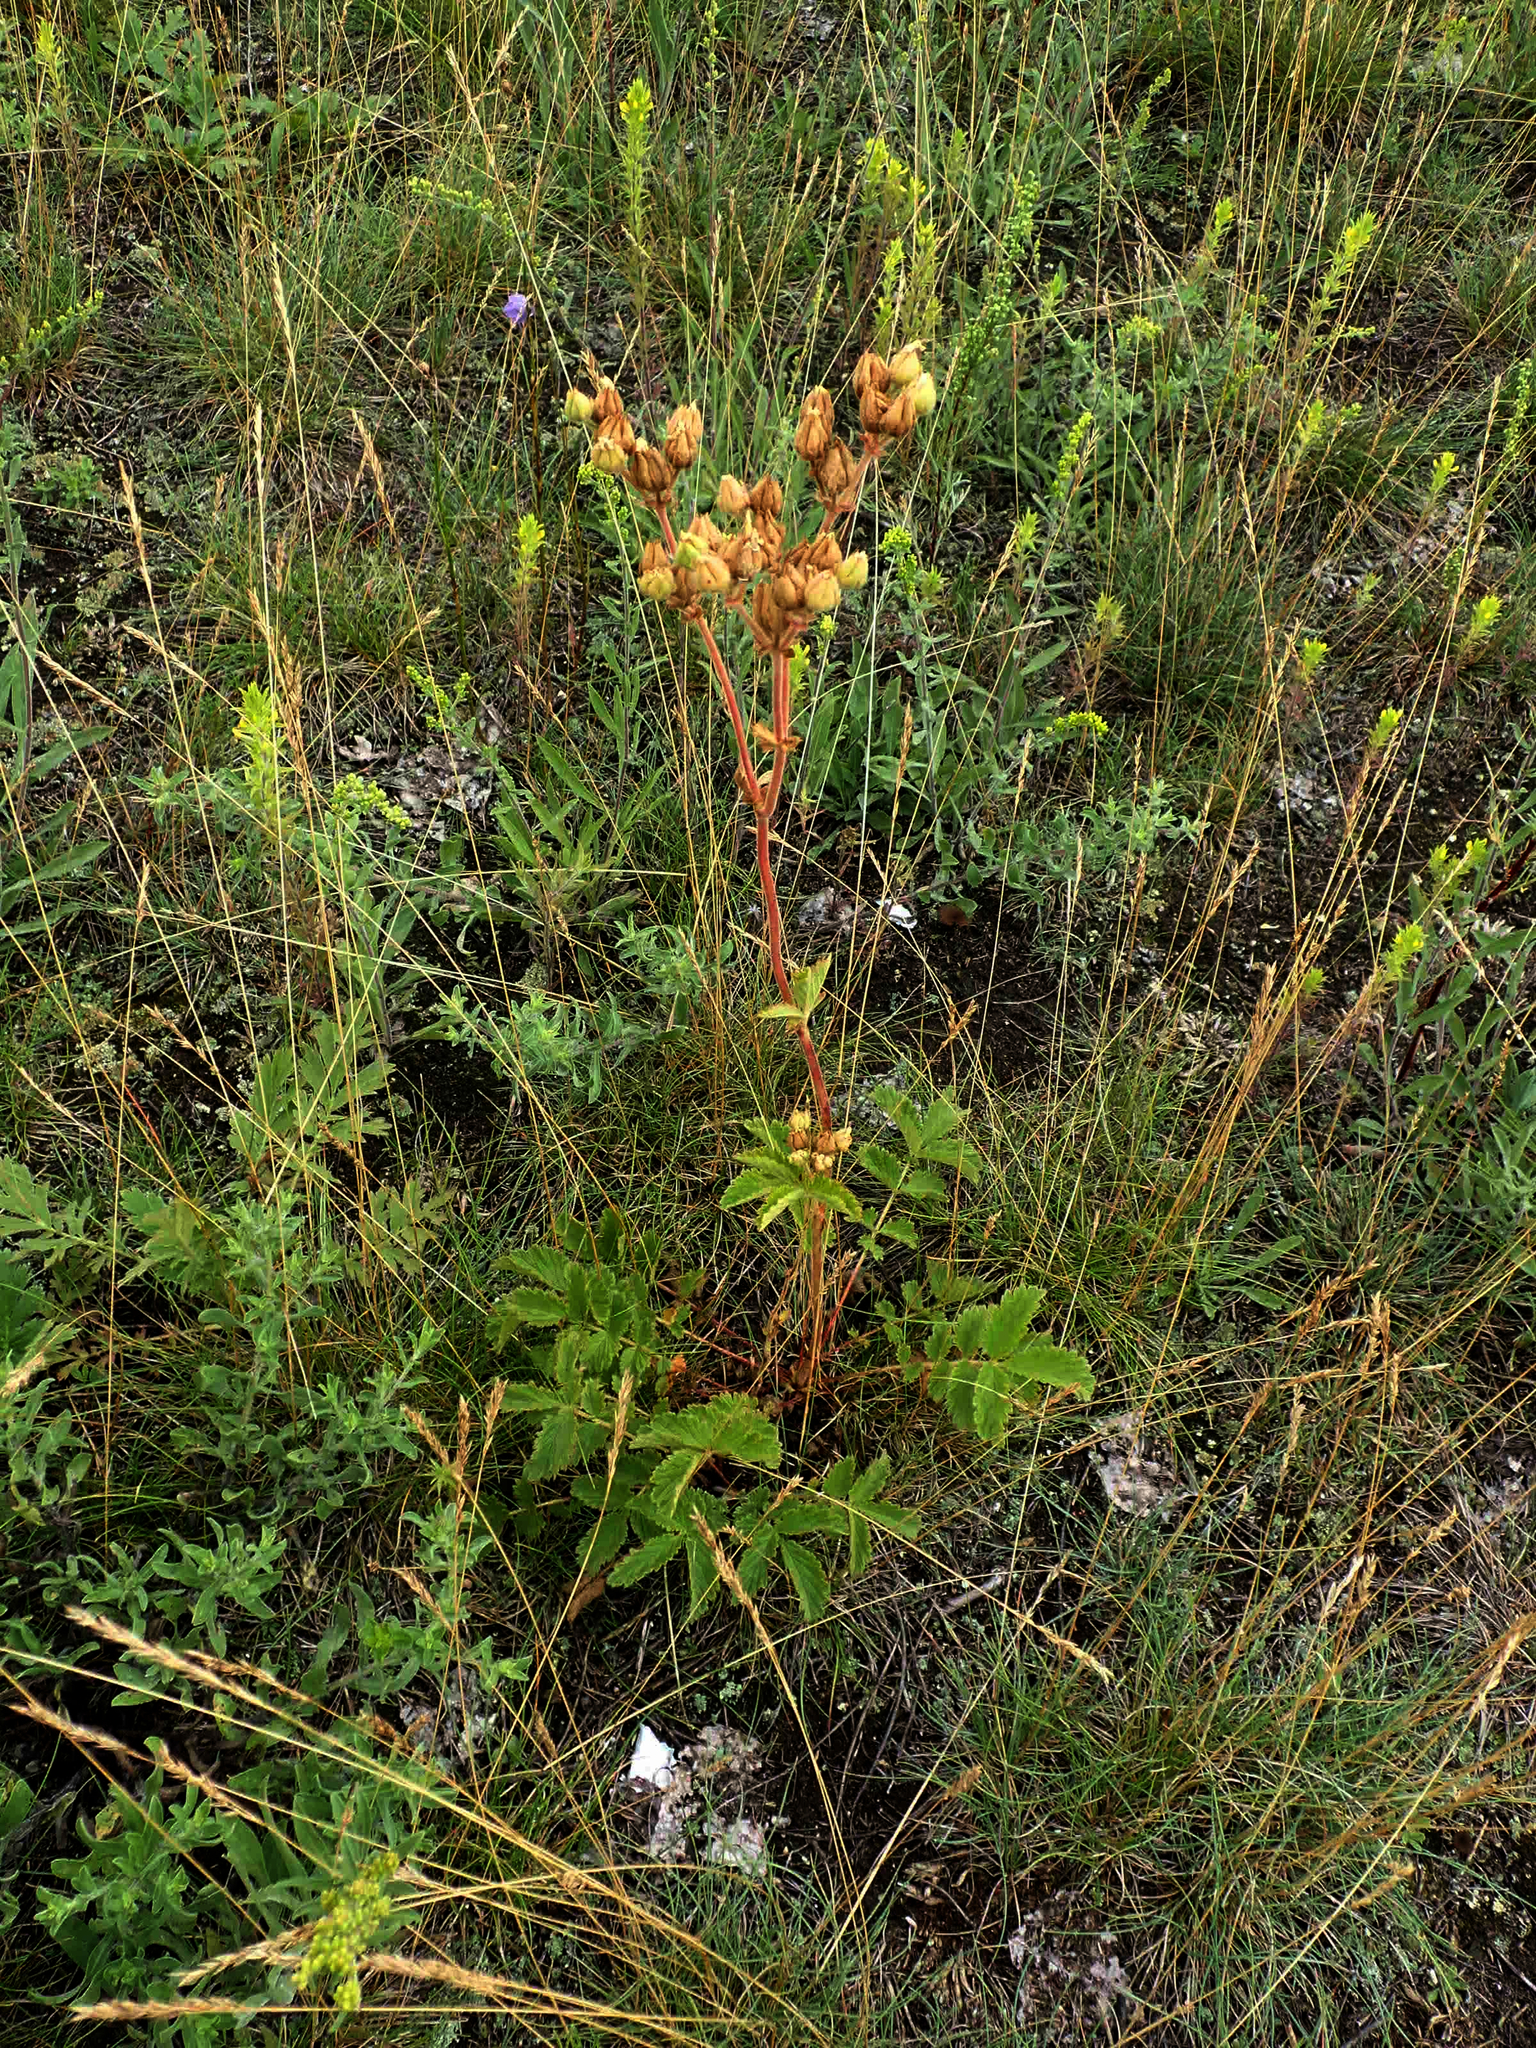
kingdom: Plantae
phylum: Tracheophyta
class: Magnoliopsida
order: Rosales
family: Rosaceae
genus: Drymocallis
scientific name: Drymocallis arguta
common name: Tall cinquefoil
